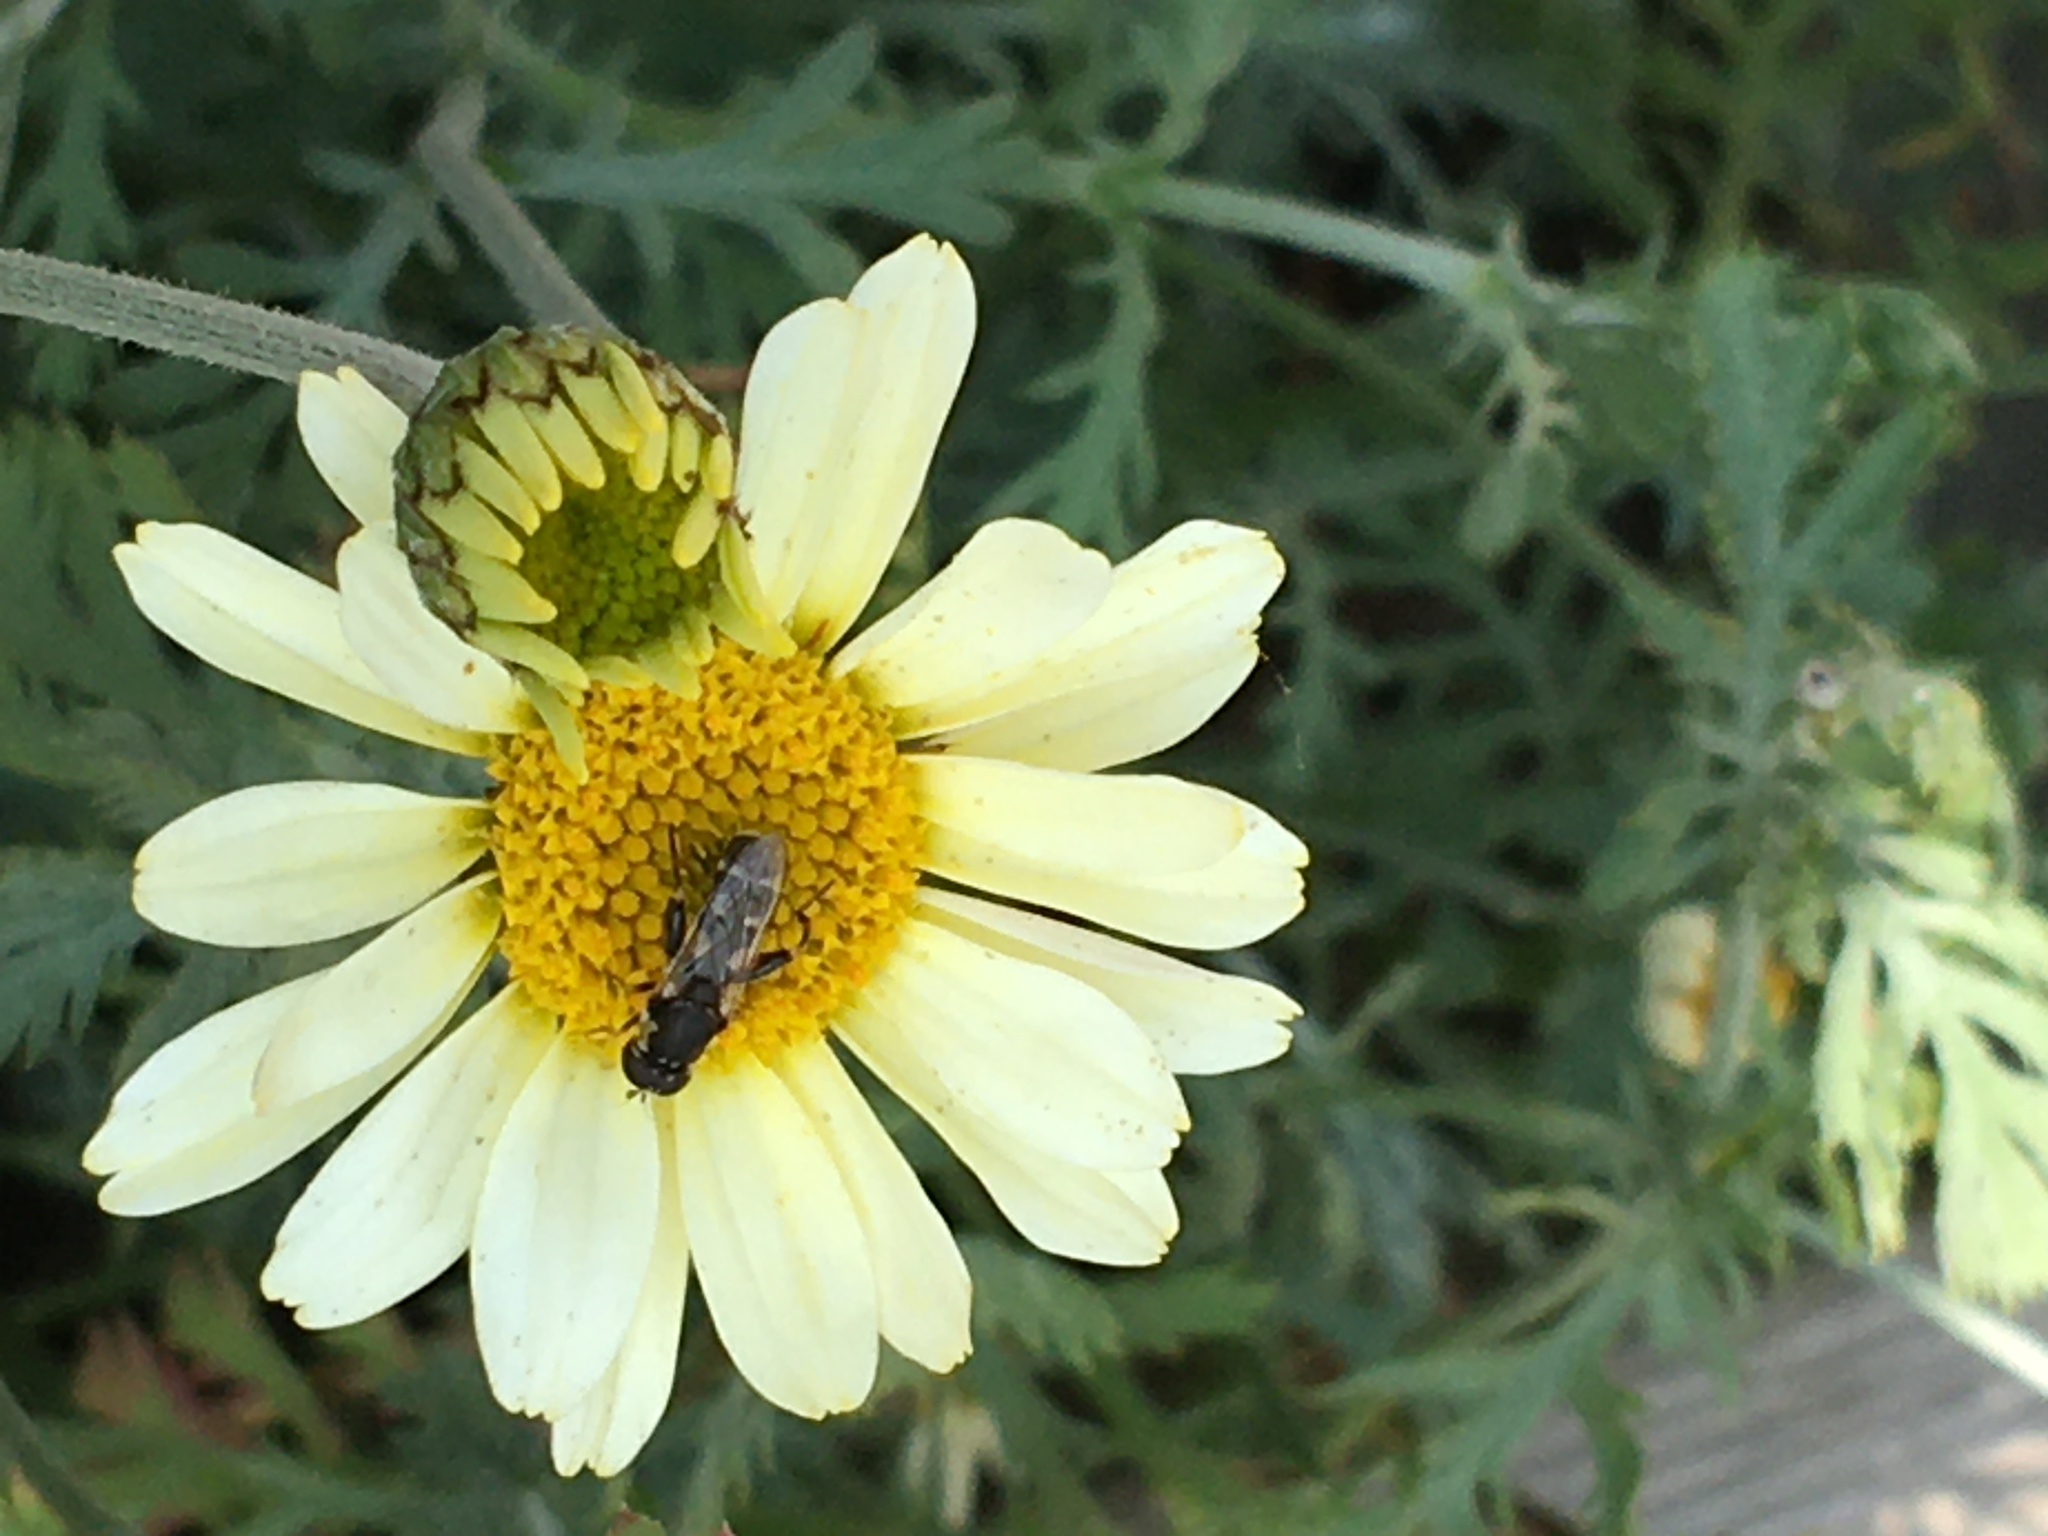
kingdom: Animalia
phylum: Arthropoda
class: Insecta
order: Diptera
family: Syrphidae
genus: Syritta
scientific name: Syritta pipiens
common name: Hover fly
